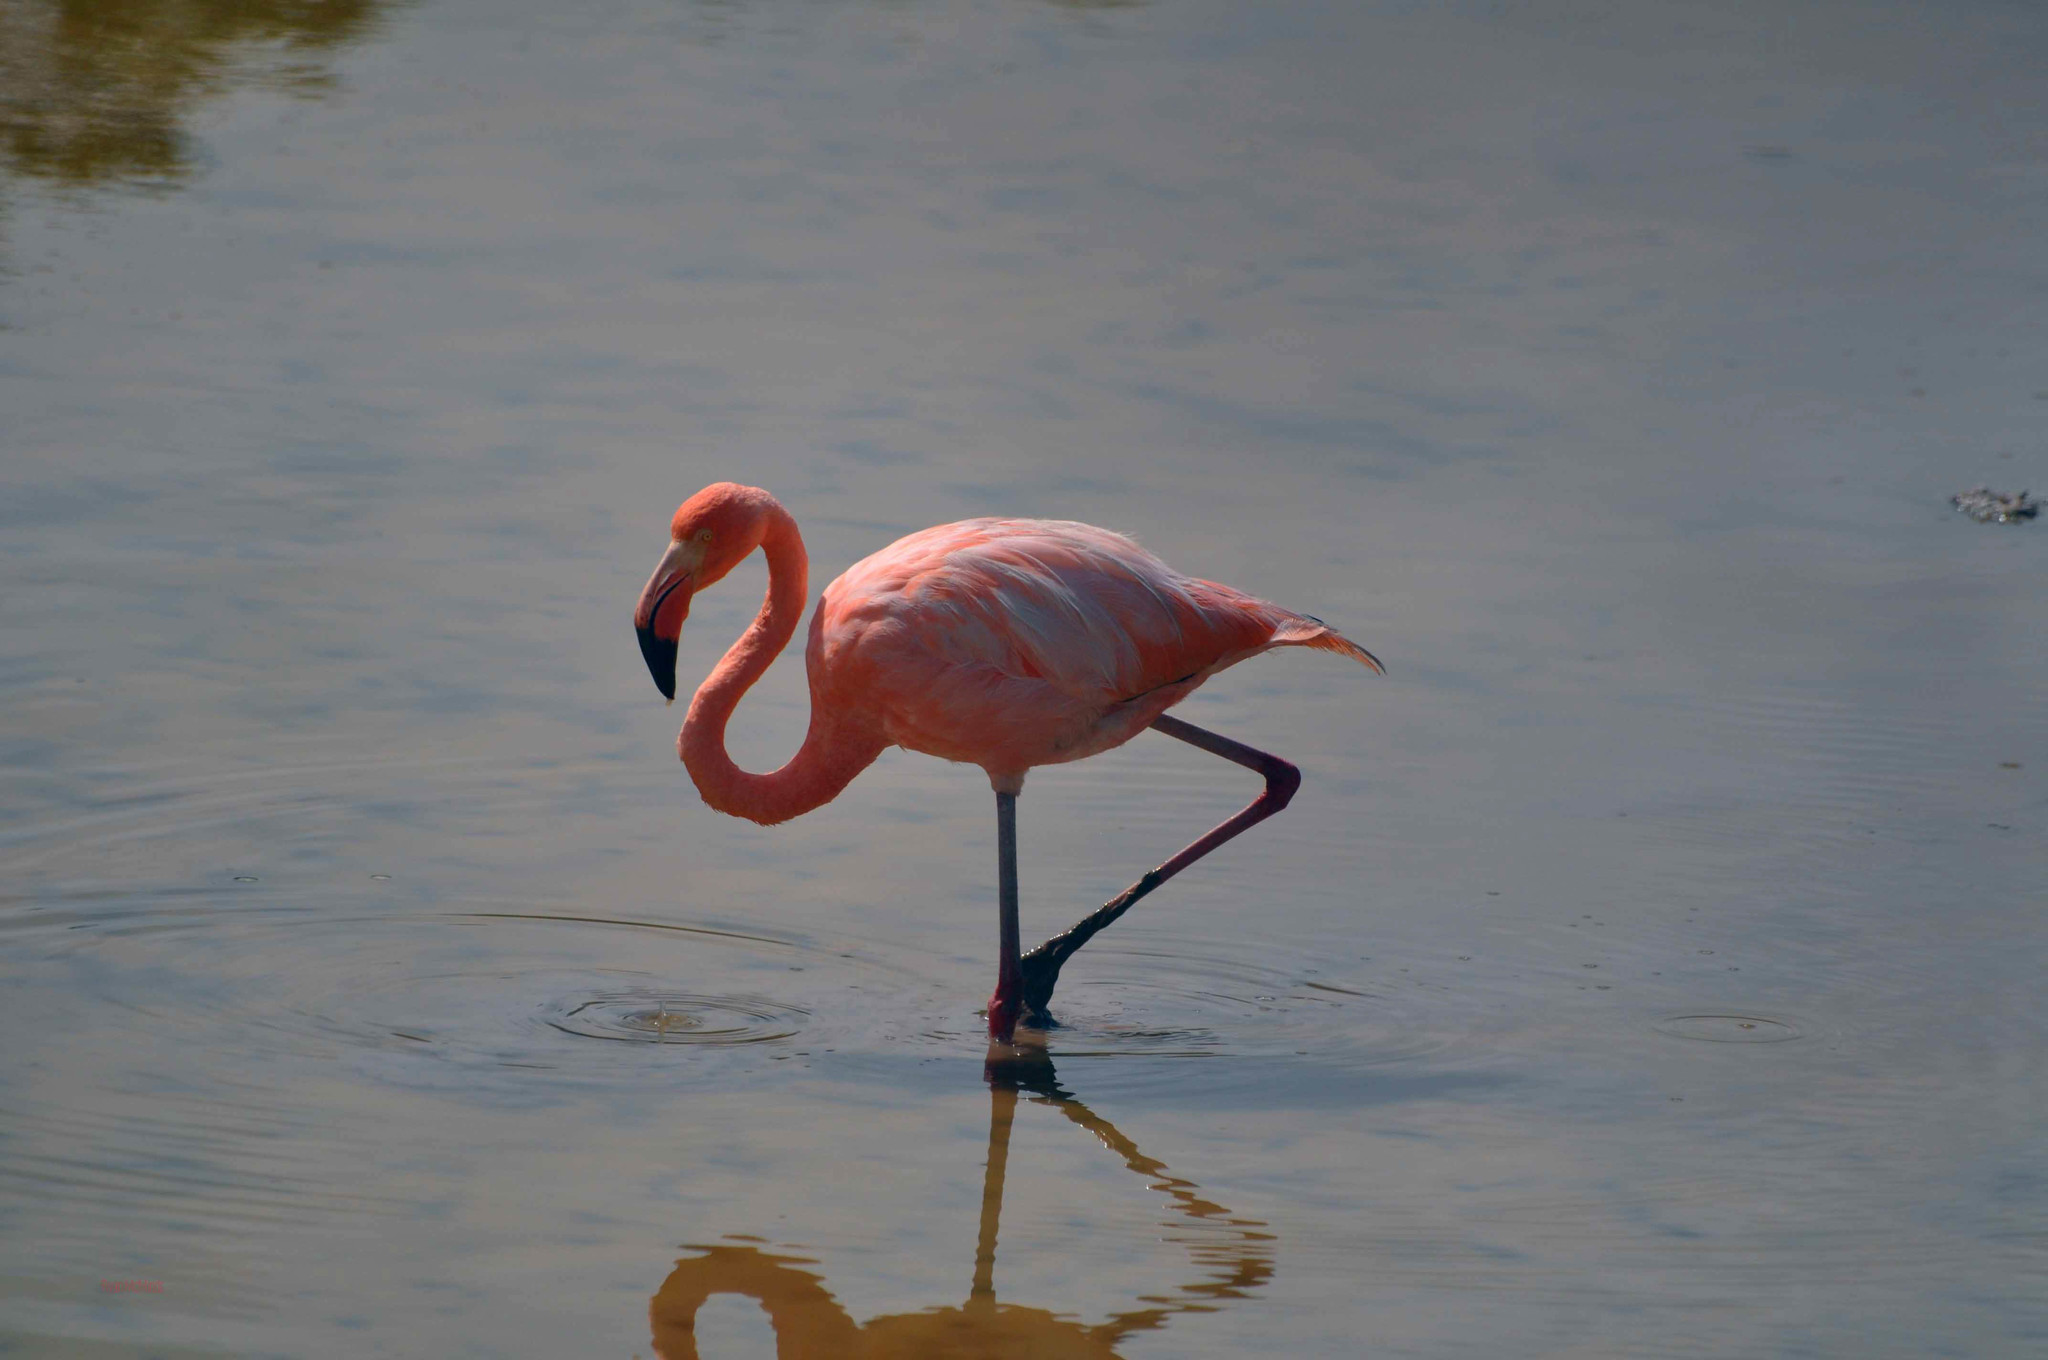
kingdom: Animalia
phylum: Chordata
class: Aves
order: Phoenicopteriformes
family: Phoenicopteridae
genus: Phoenicopterus
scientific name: Phoenicopterus ruber
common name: American flamingo
